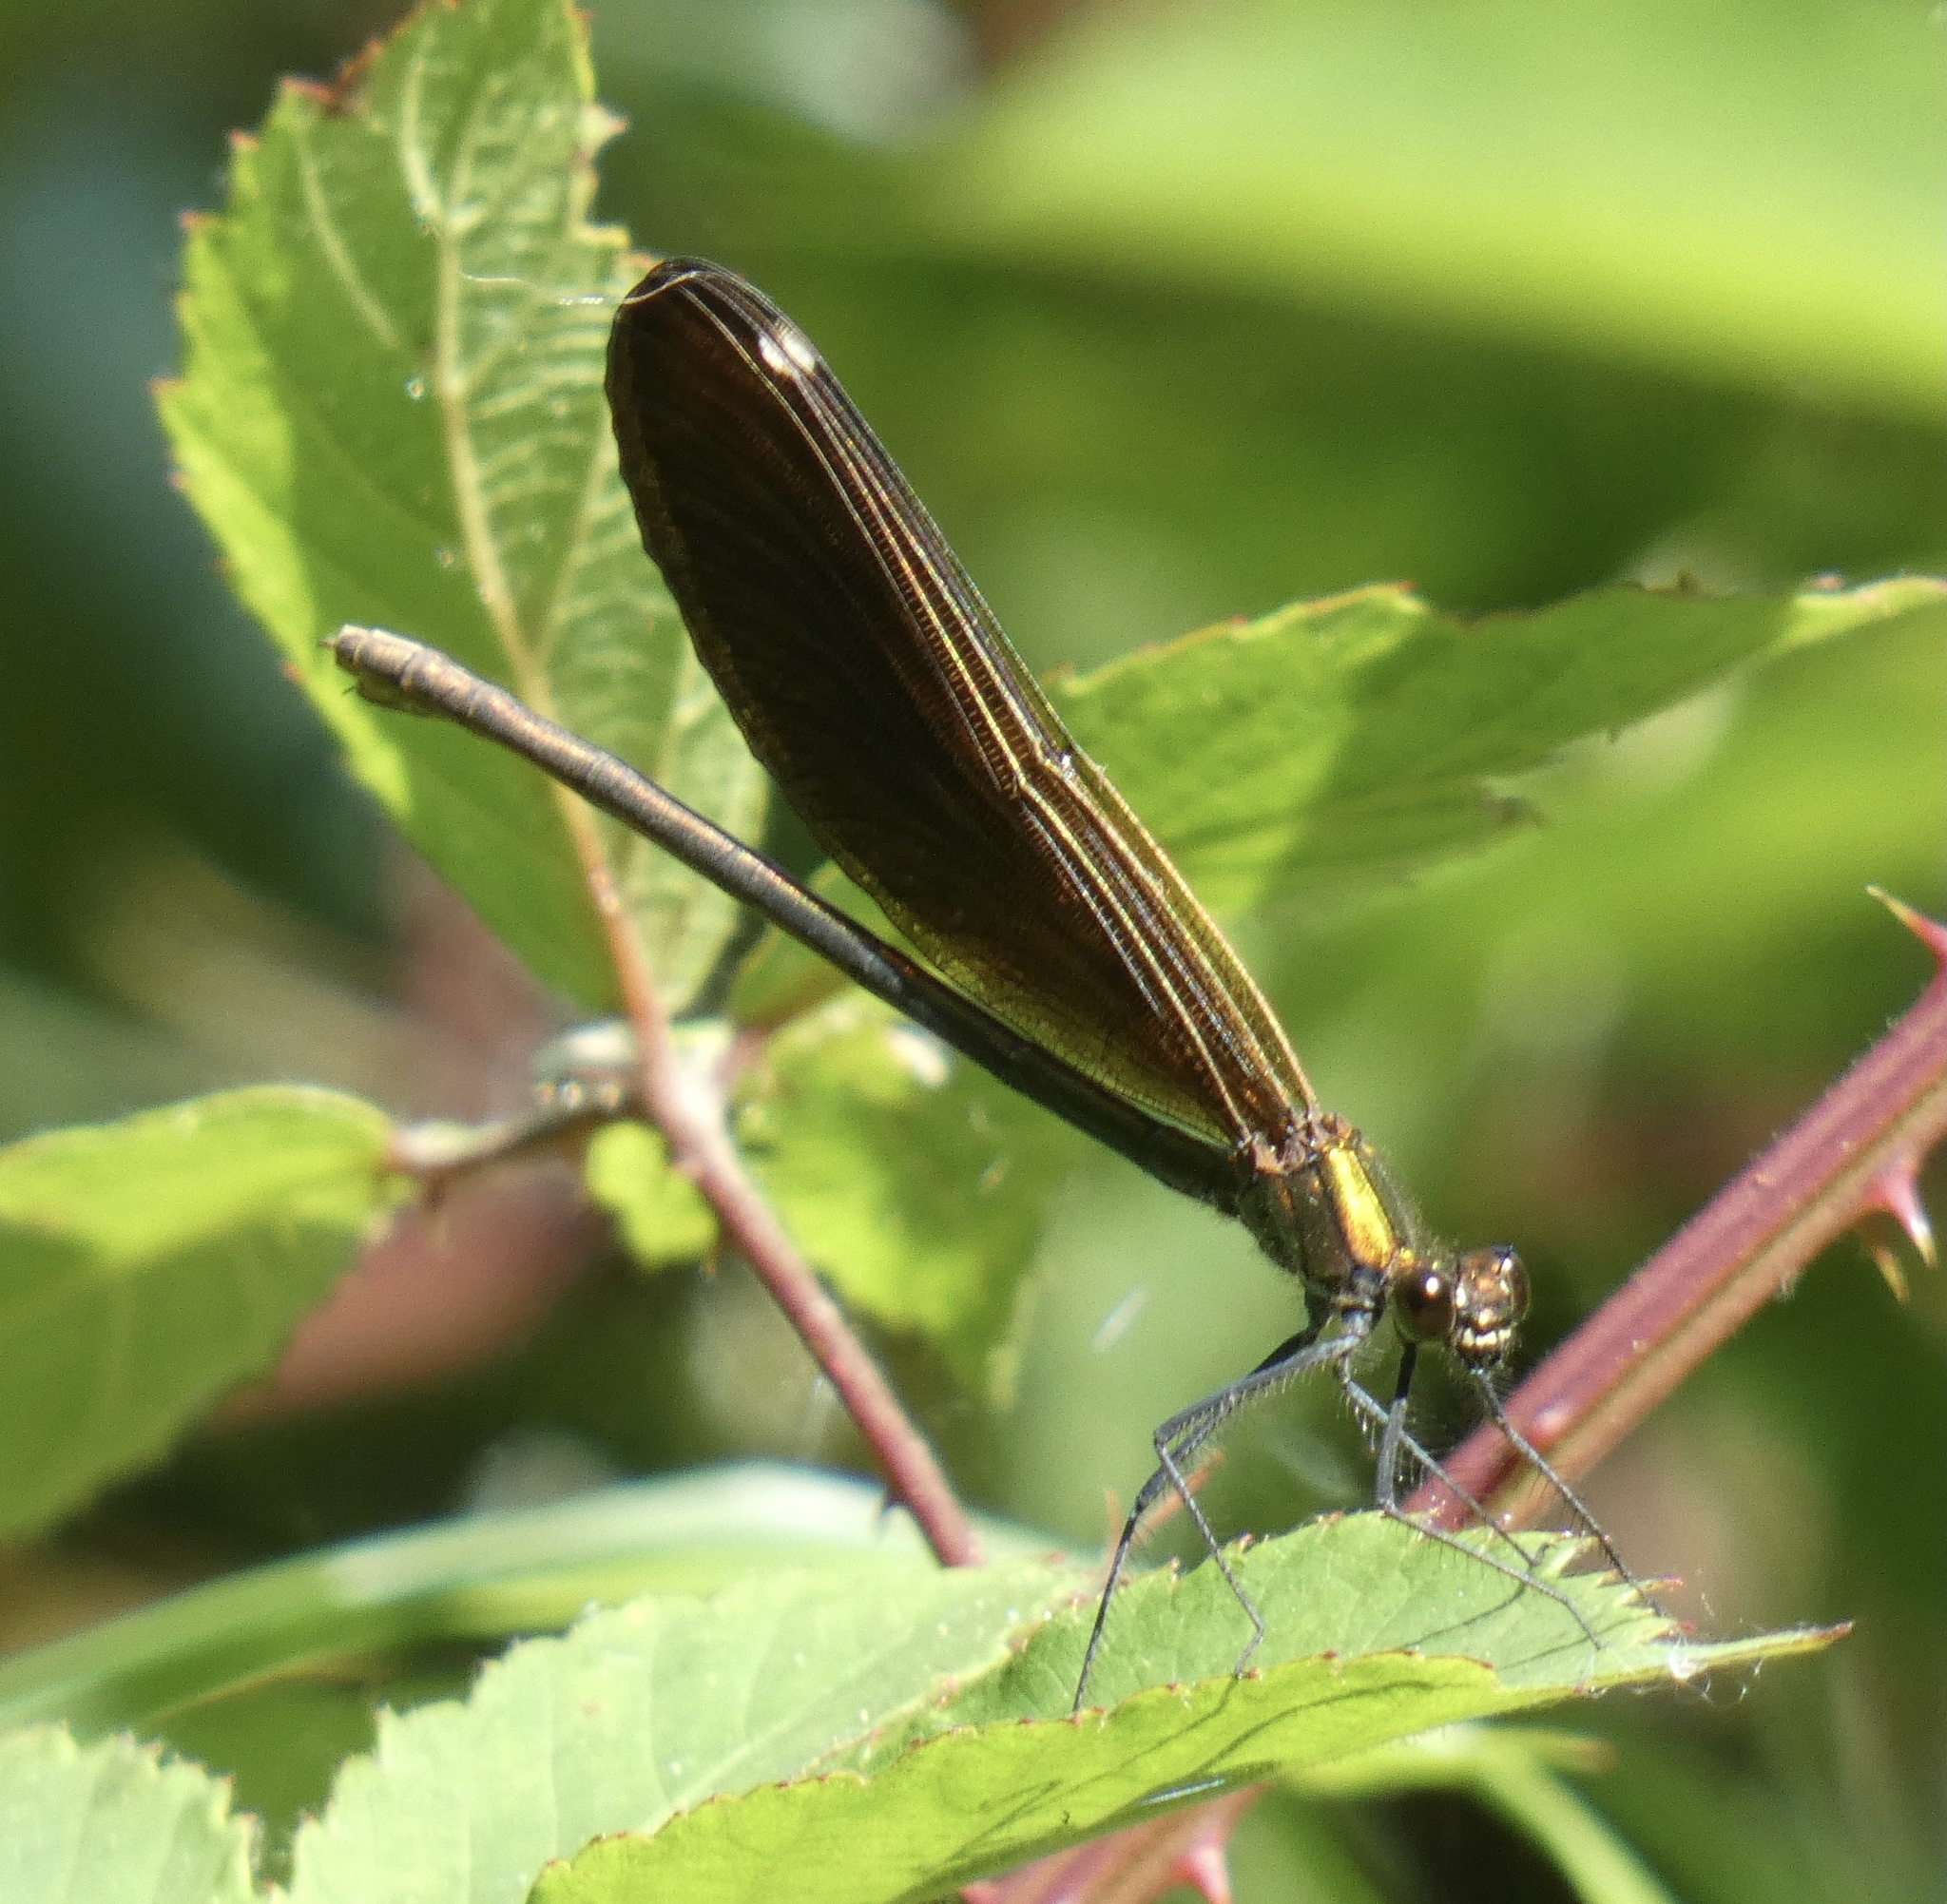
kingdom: Animalia
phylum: Arthropoda
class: Insecta
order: Odonata
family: Calopterygidae
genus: Calopteryx
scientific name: Calopteryx virgo
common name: Beautiful demoiselle
